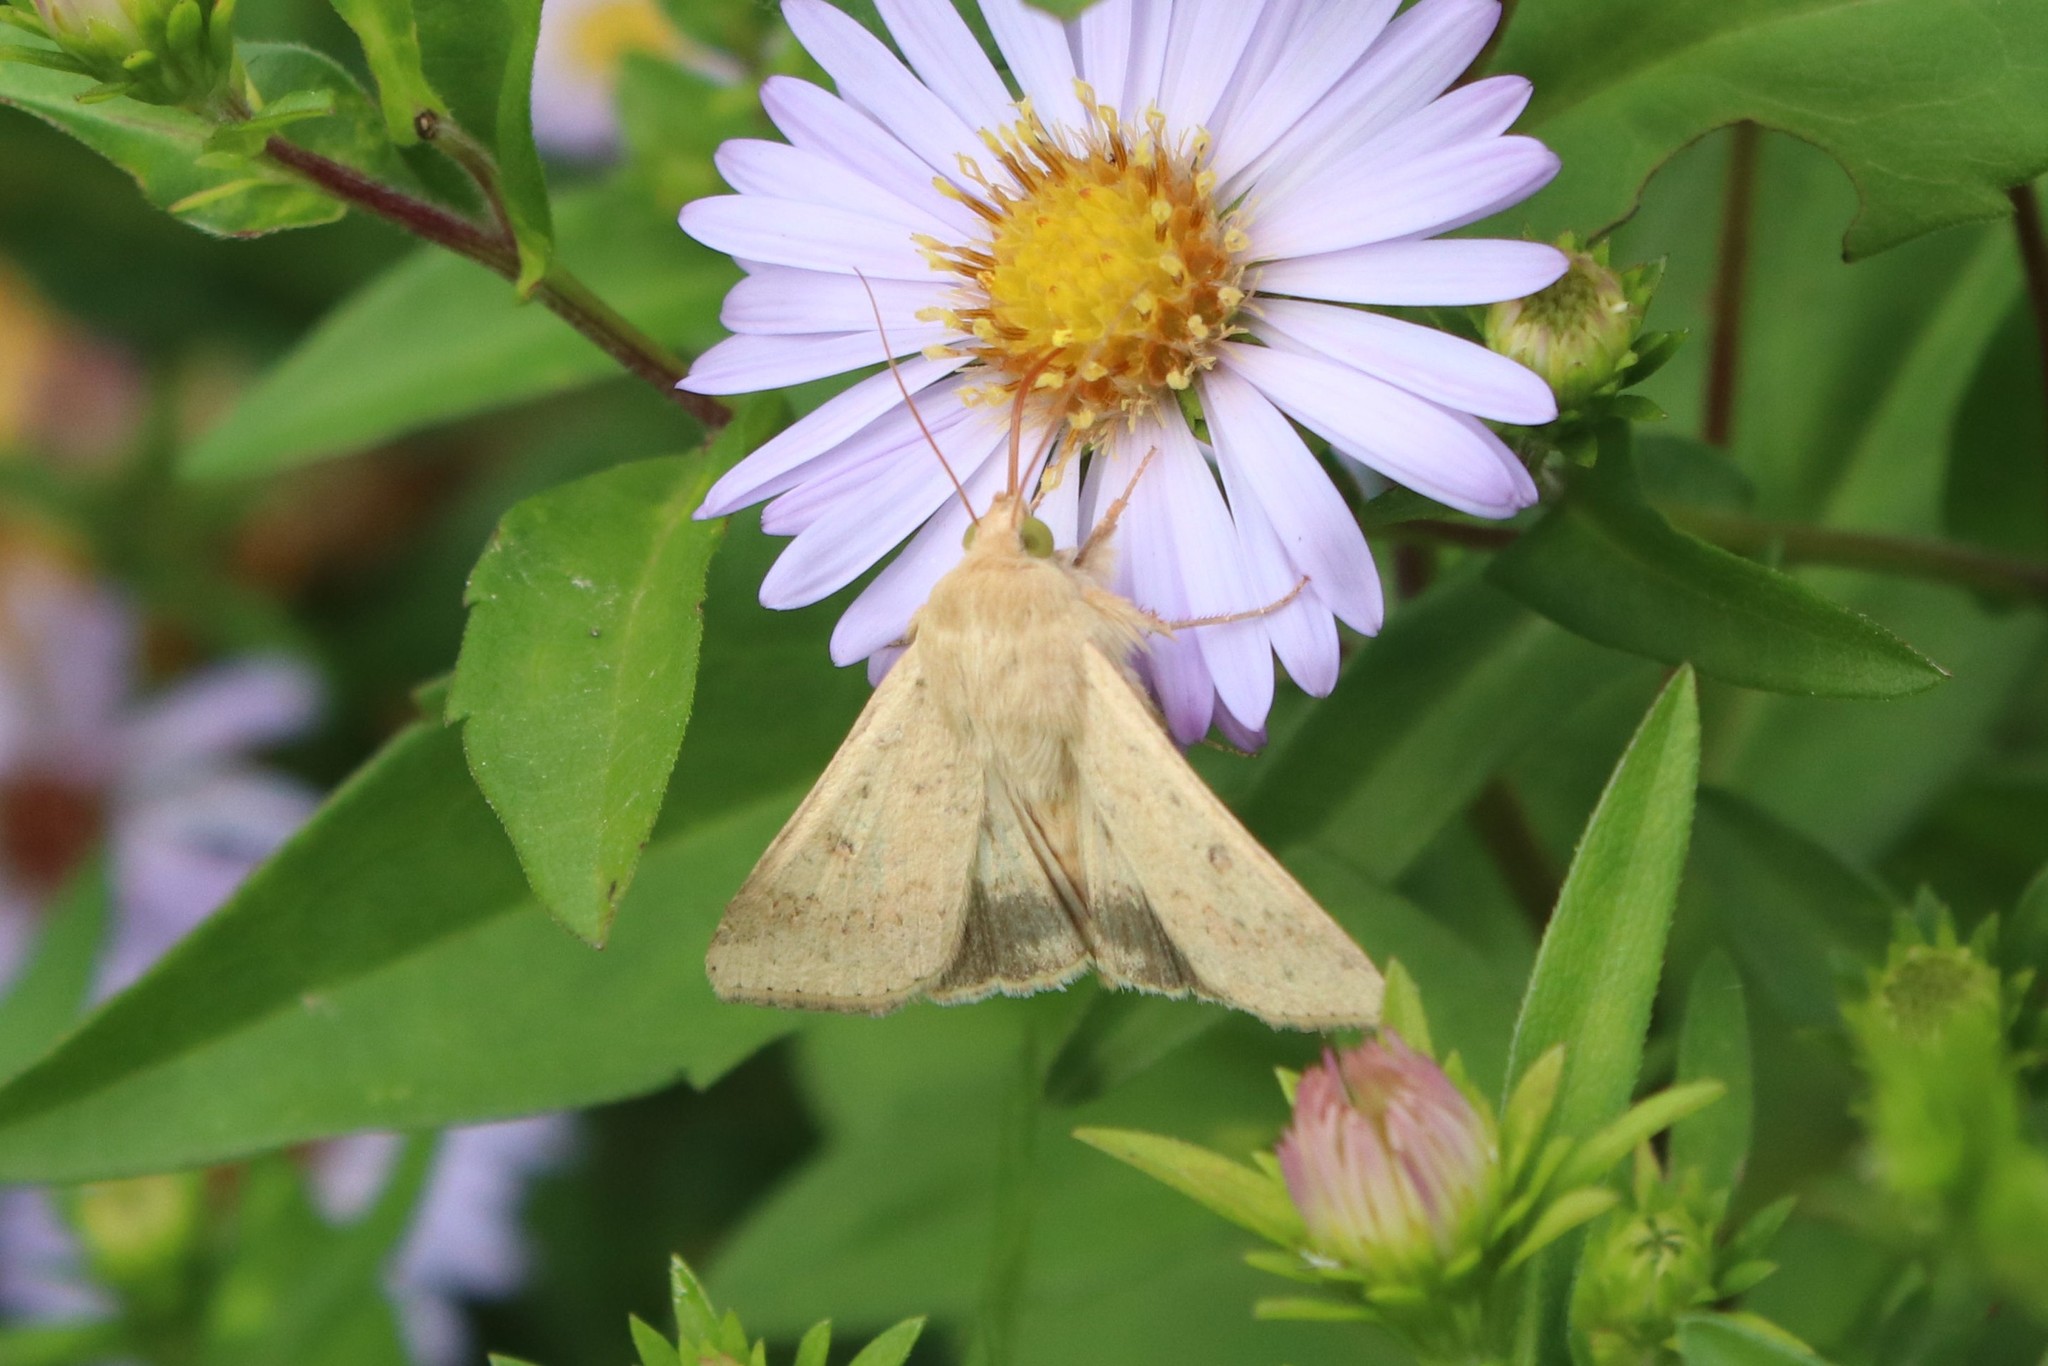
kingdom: Animalia
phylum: Arthropoda
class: Insecta
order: Lepidoptera
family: Noctuidae
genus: Helicoverpa
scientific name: Helicoverpa armigera
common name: Cotton bollworm
